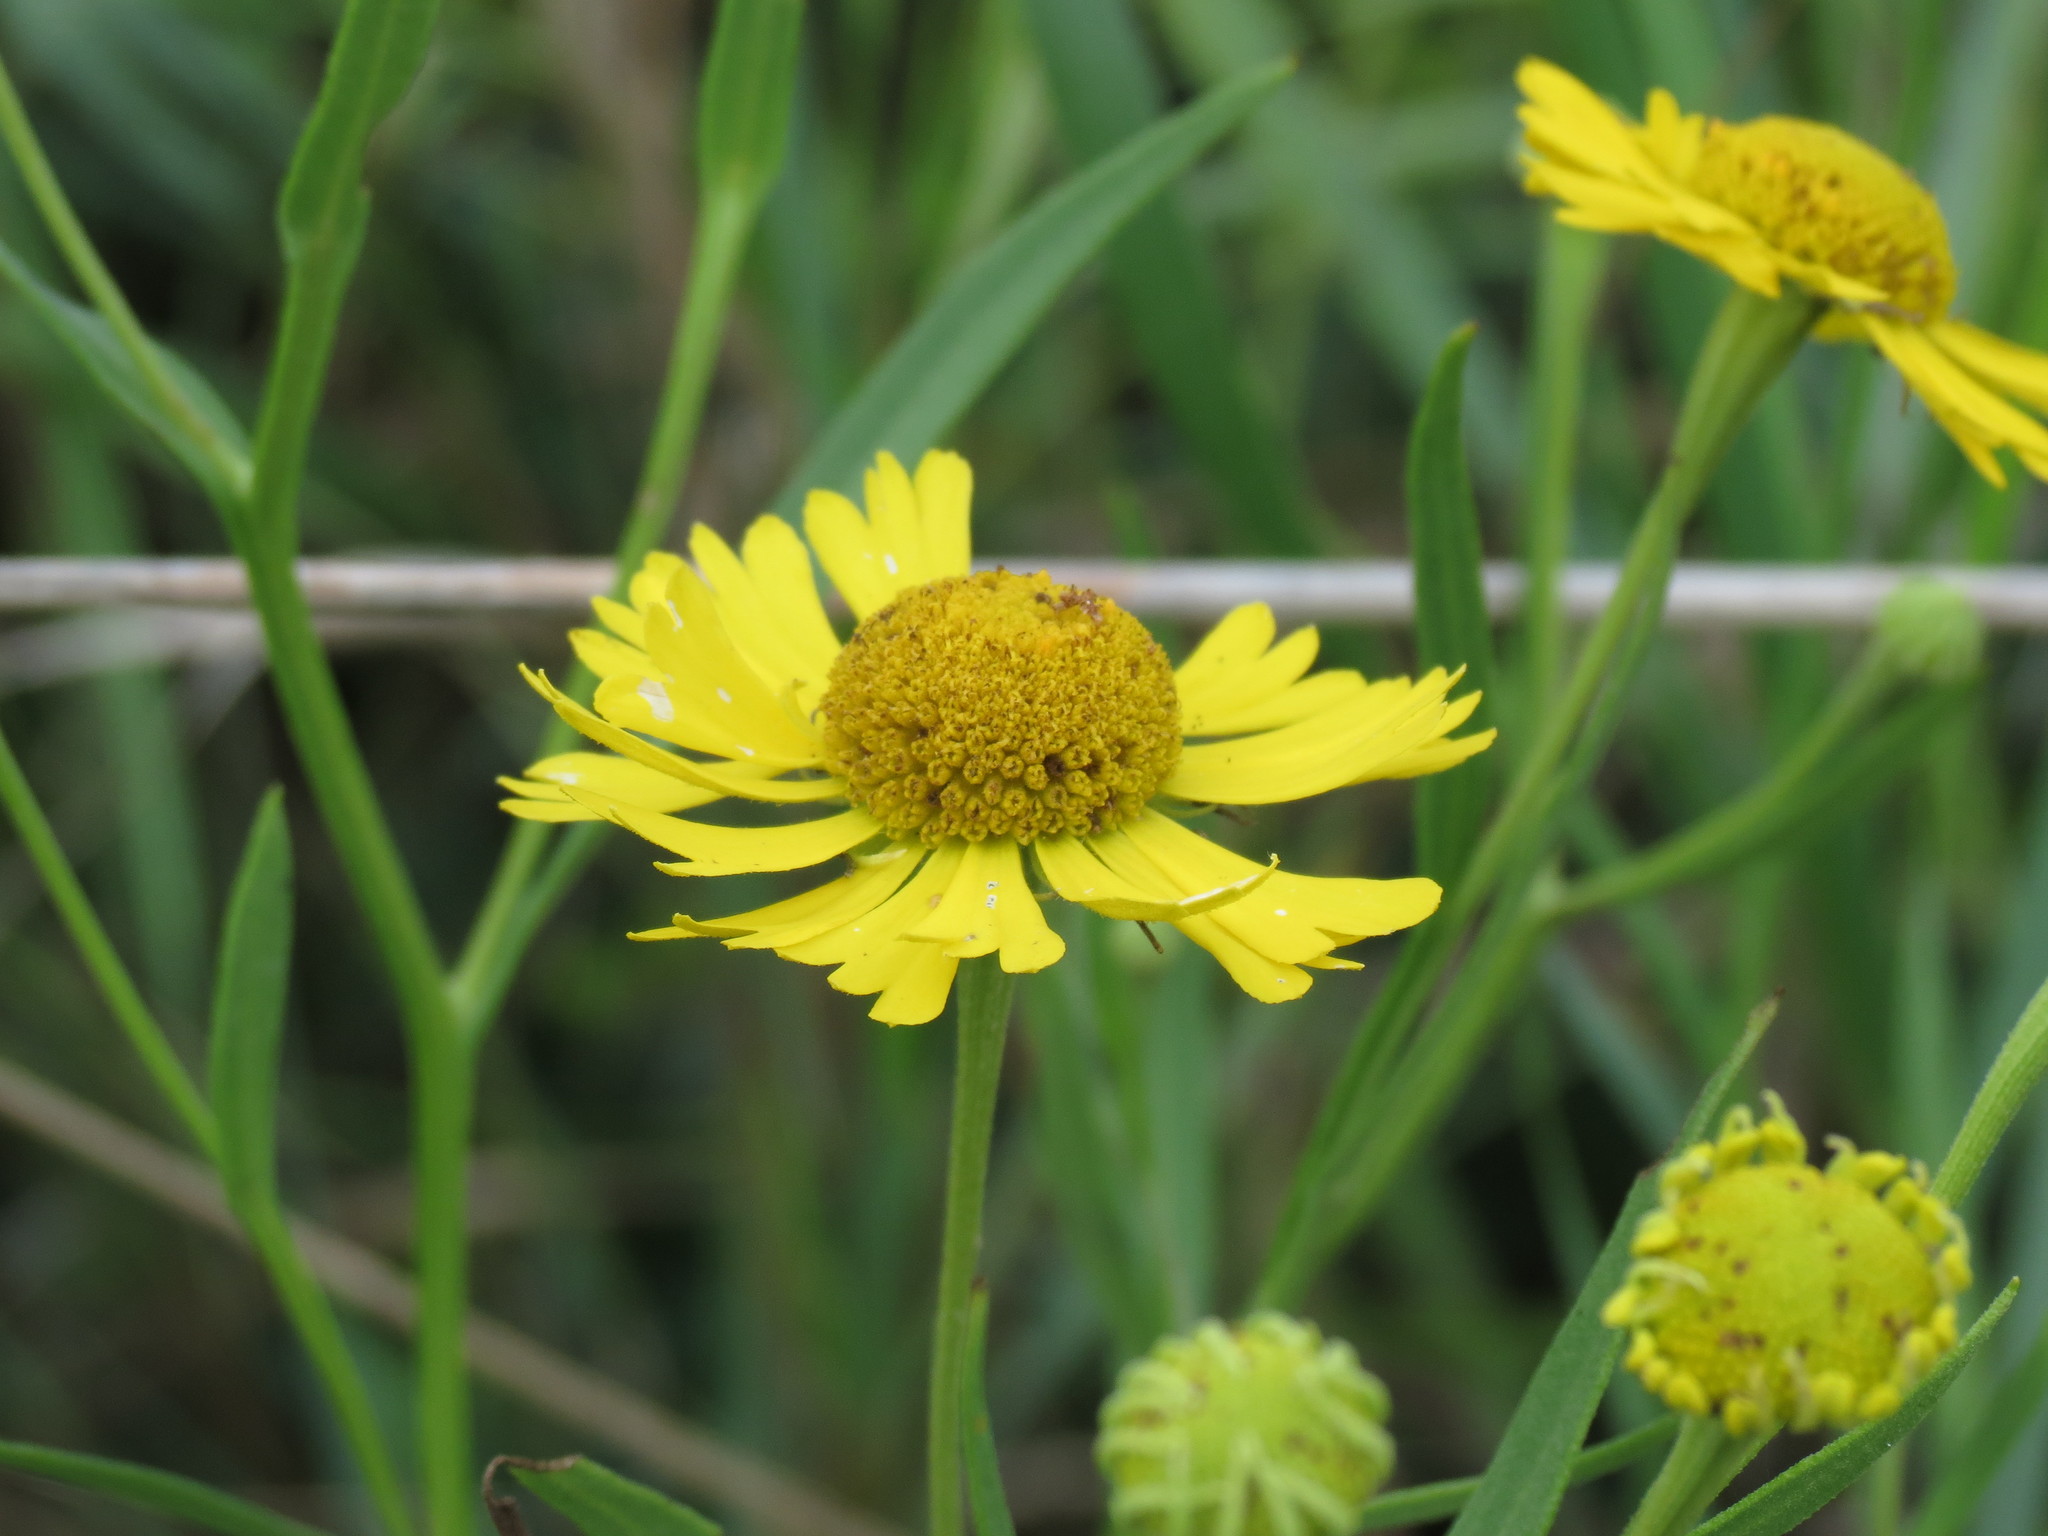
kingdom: Plantae
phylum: Tracheophyta
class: Magnoliopsida
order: Asterales
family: Asteraceae
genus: Helenium
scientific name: Helenium autumnale
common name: Sneezeweed
